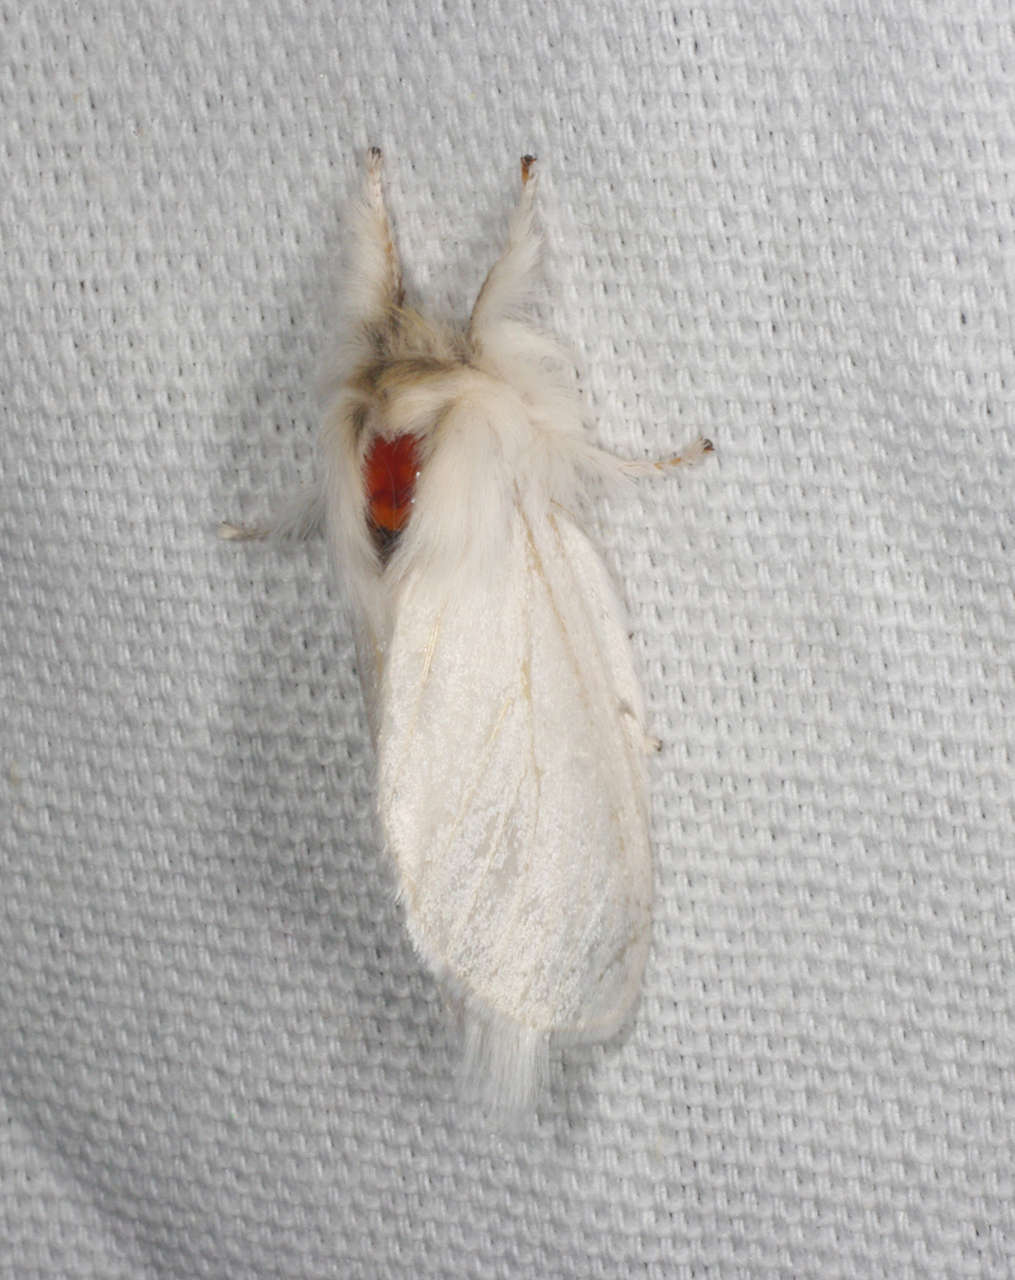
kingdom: Animalia
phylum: Arthropoda
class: Insecta
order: Lepidoptera
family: Notodontidae
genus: Trichiocercus
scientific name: Trichiocercus sparshalli
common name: Long-tailed satin
